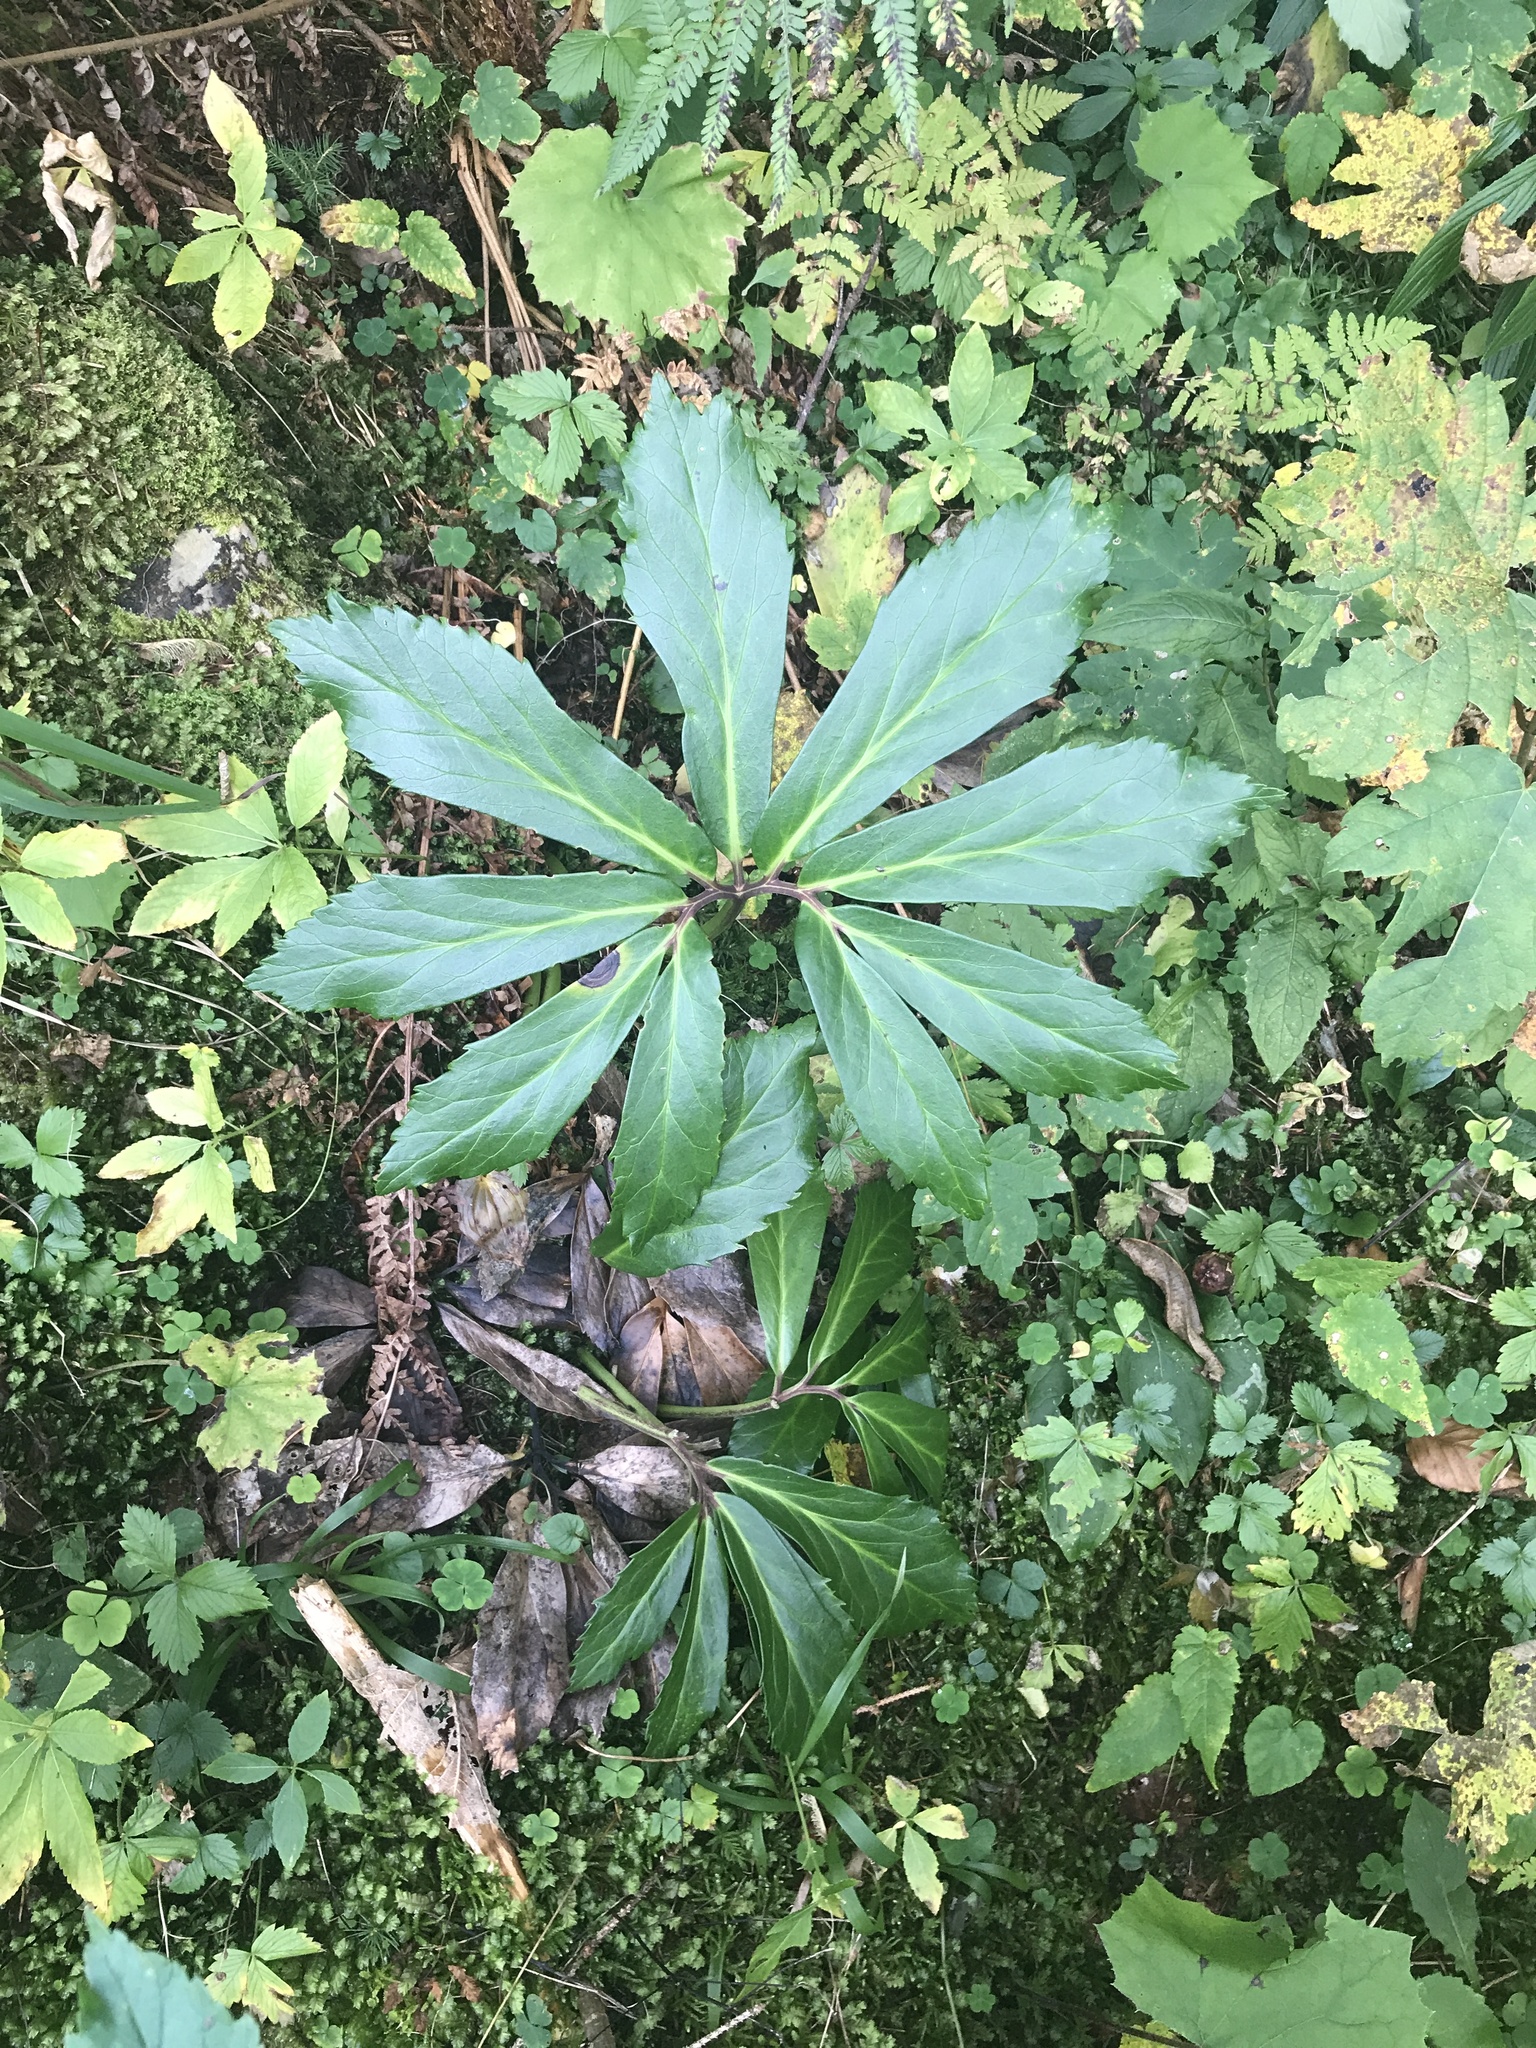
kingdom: Plantae
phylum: Tracheophyta
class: Magnoliopsida
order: Ranunculales
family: Ranunculaceae
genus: Helleborus
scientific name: Helleborus niger
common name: Black hellebore
